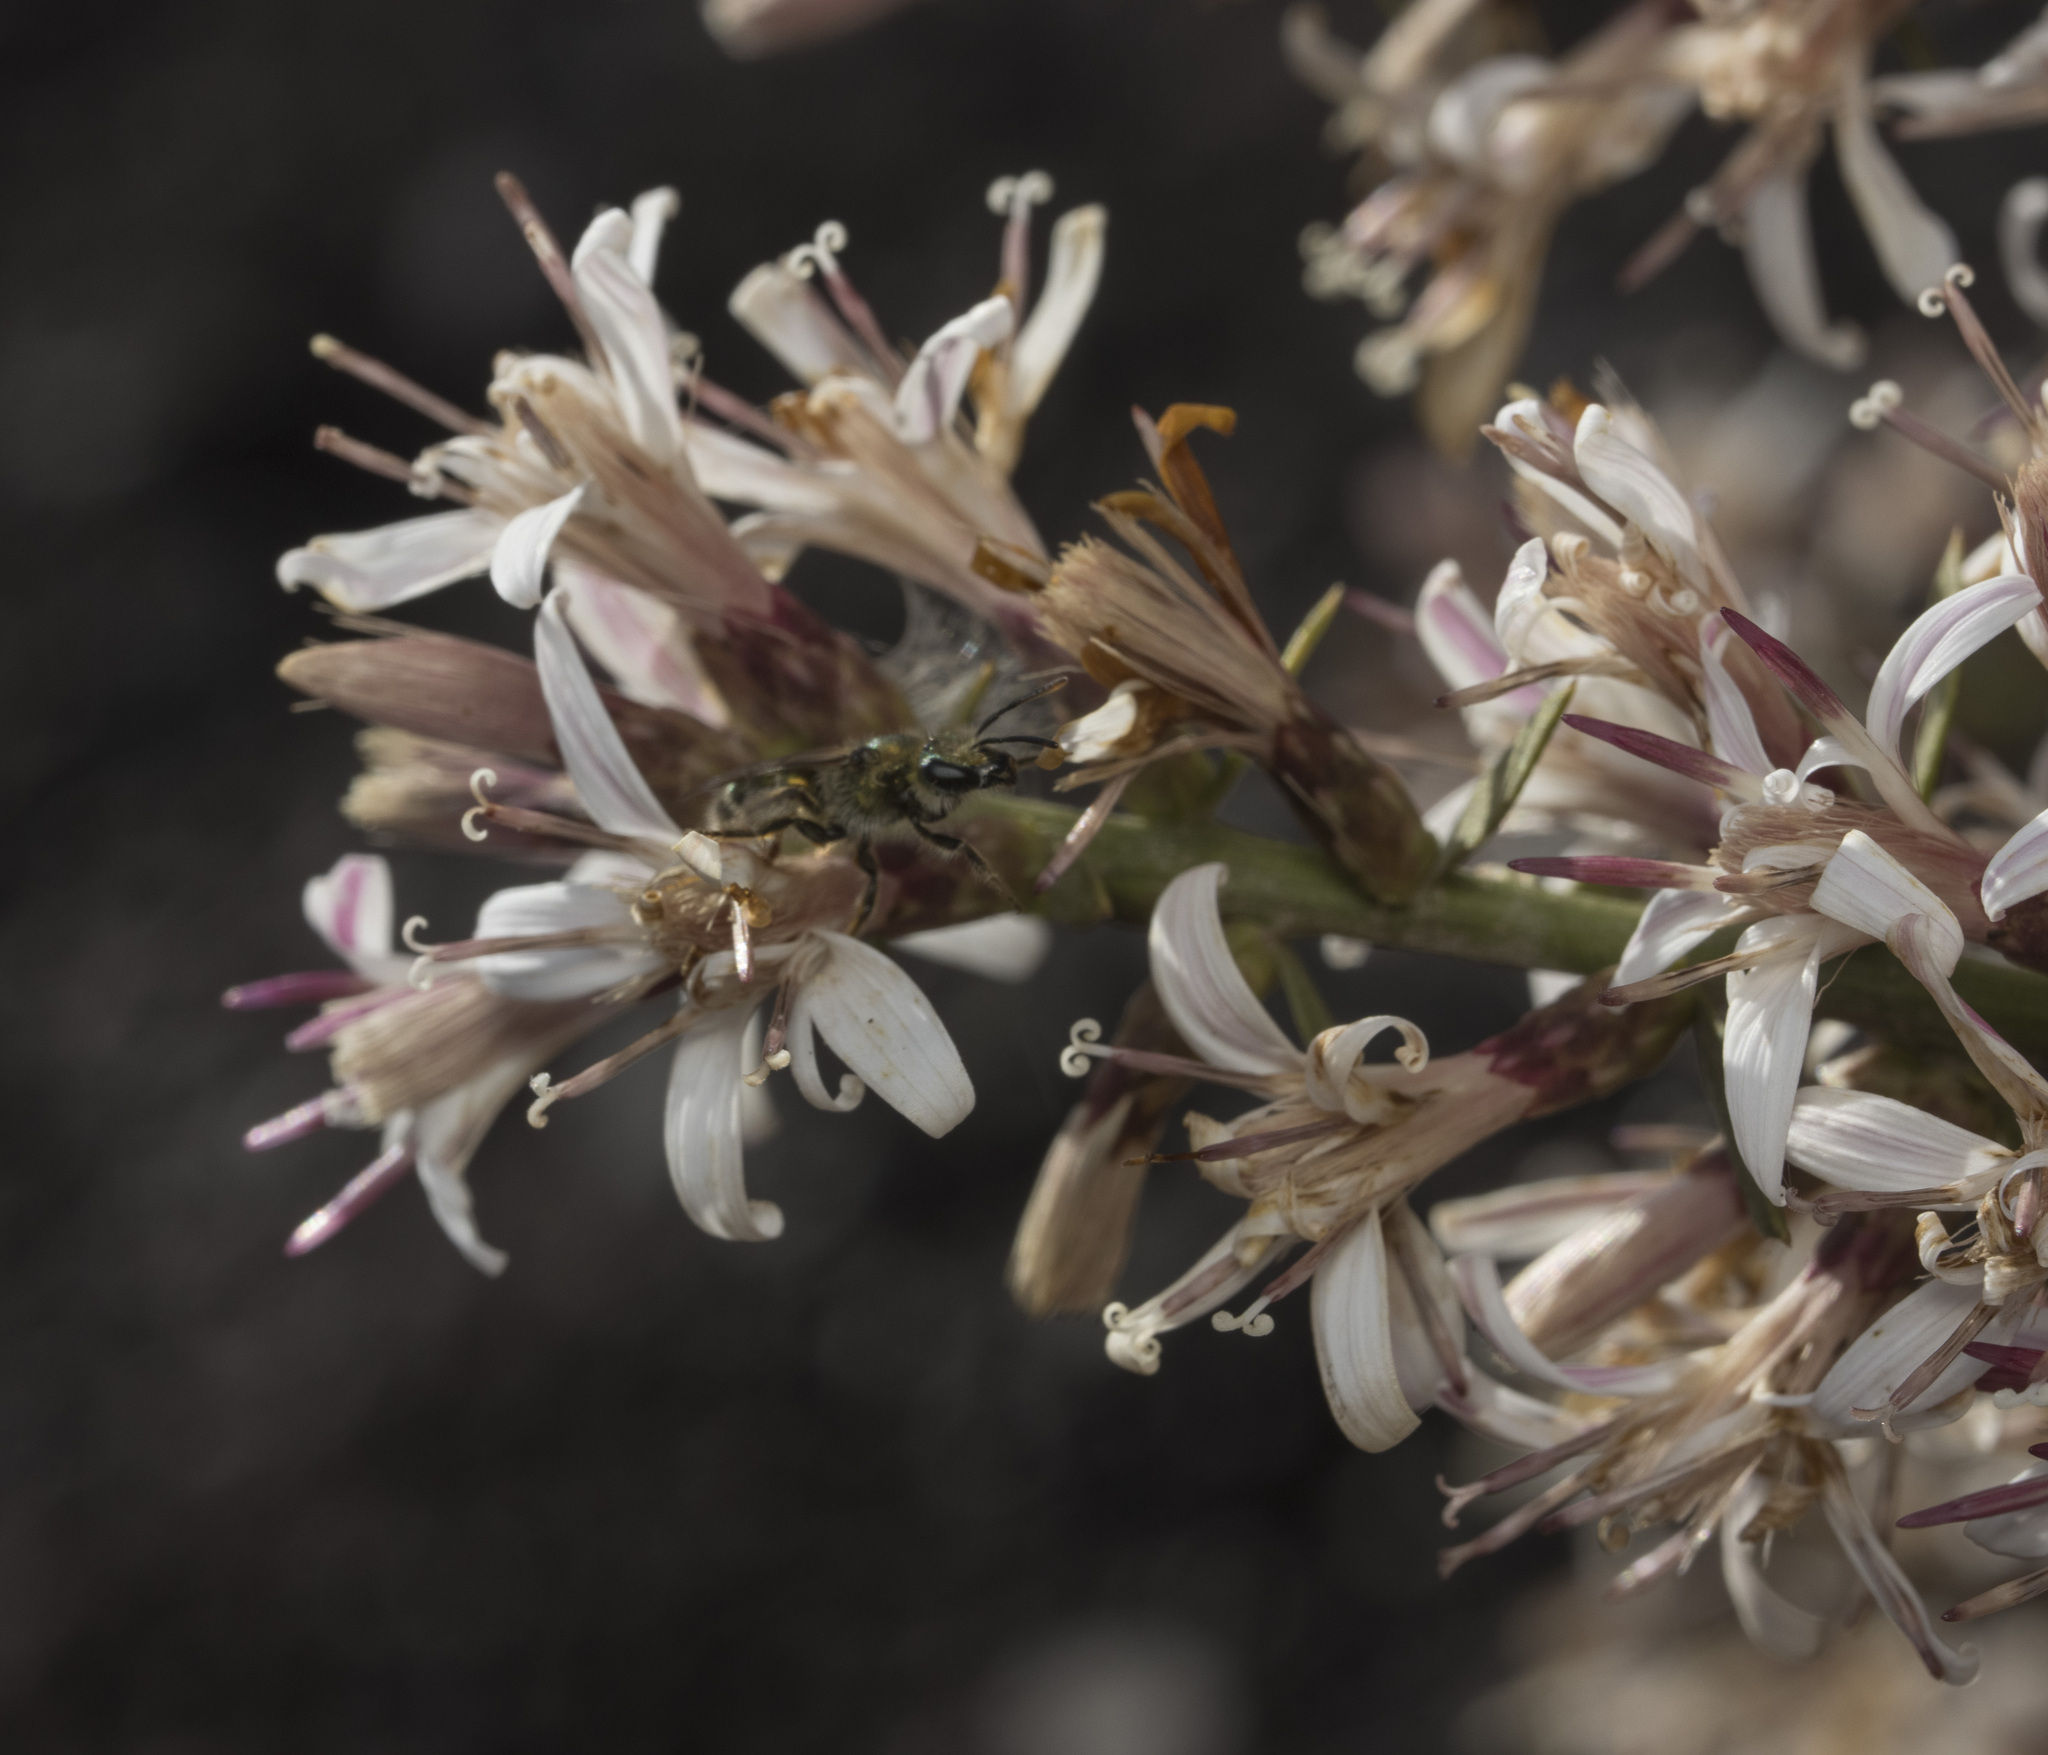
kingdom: Plantae
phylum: Tracheophyta
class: Magnoliopsida
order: Asterales
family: Asteraceae
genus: Proustia
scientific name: Proustia cuneifolia
